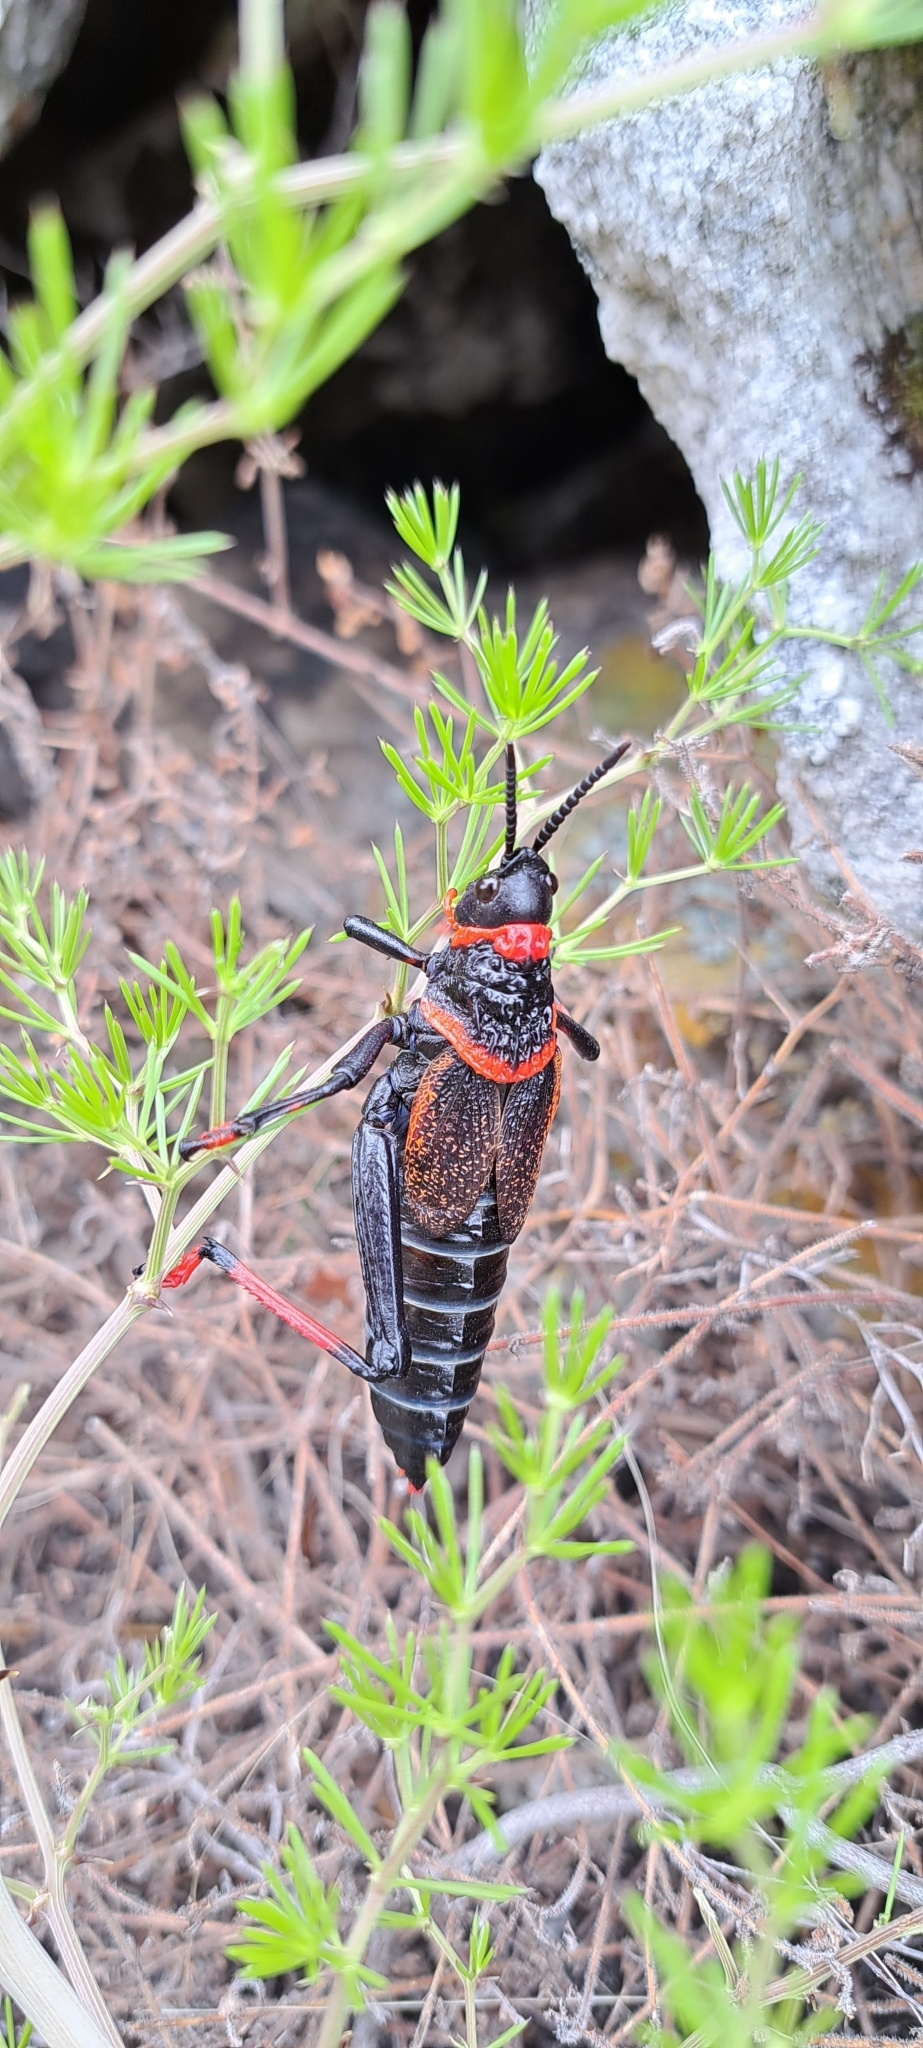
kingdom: Animalia
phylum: Arthropoda
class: Insecta
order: Orthoptera
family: Pyrgomorphidae
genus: Dictyophorus
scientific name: Dictyophorus spumans
